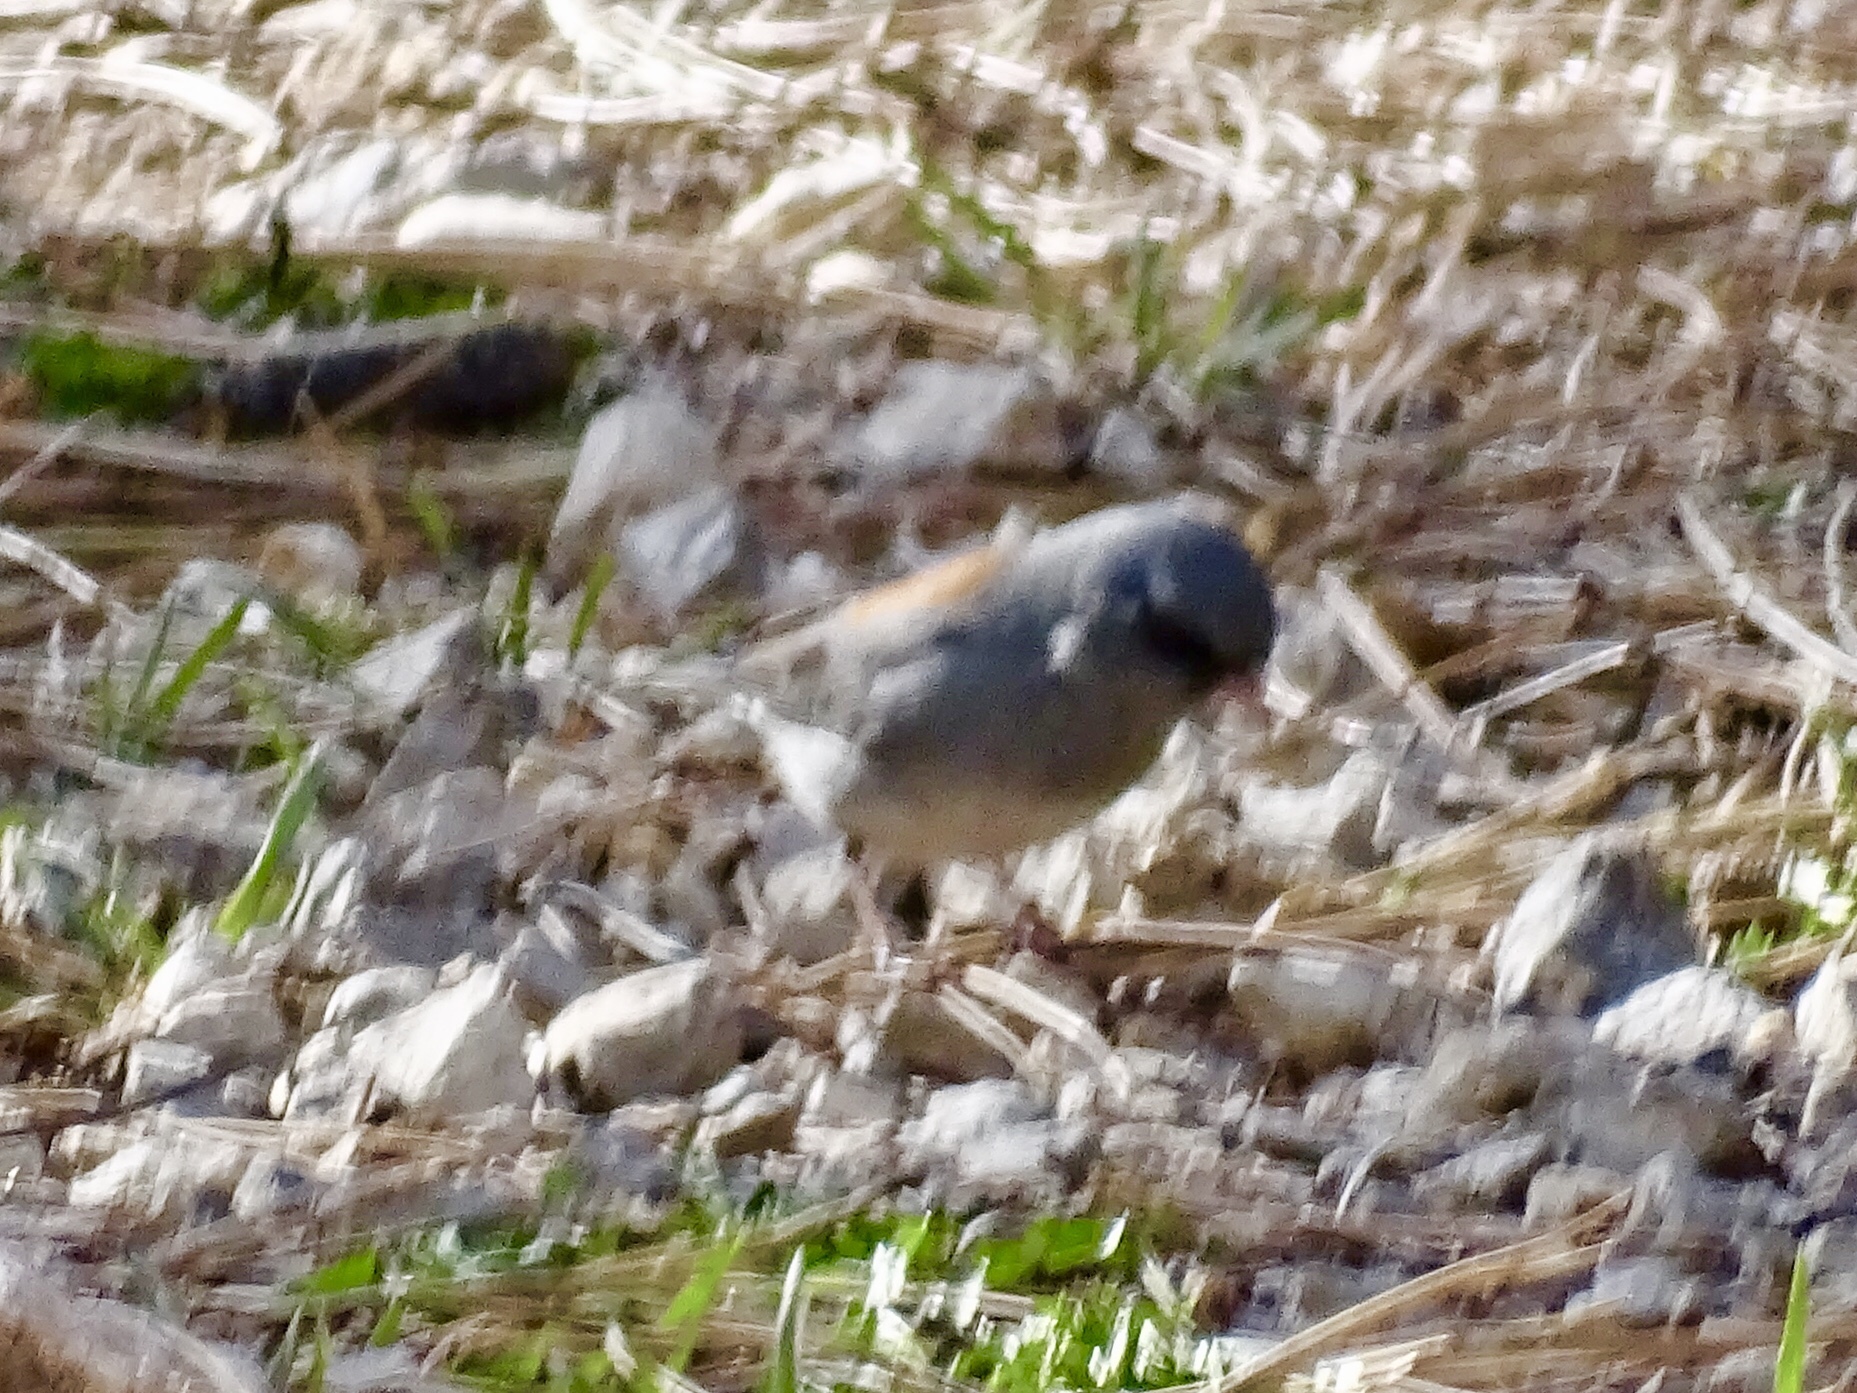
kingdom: Animalia
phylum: Chordata
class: Aves
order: Passeriformes
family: Passerellidae
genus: Junco
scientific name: Junco hyemalis
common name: Dark-eyed junco
